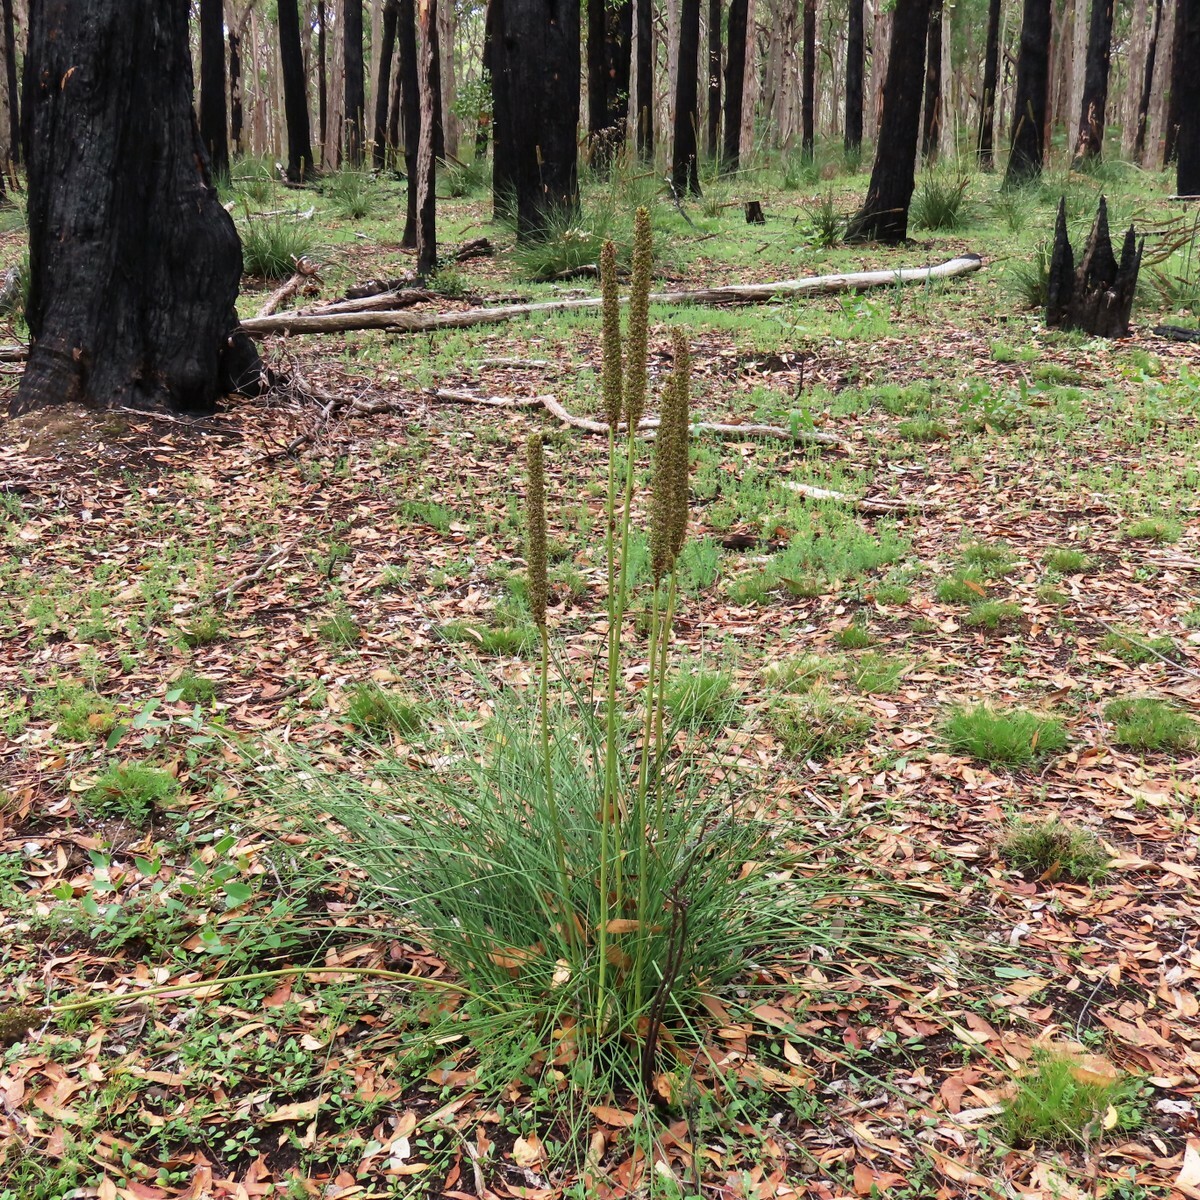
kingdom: Plantae
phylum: Tracheophyta
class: Liliopsida
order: Asparagales
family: Asphodelaceae
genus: Xanthorrhoea
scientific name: Xanthorrhoea minor
